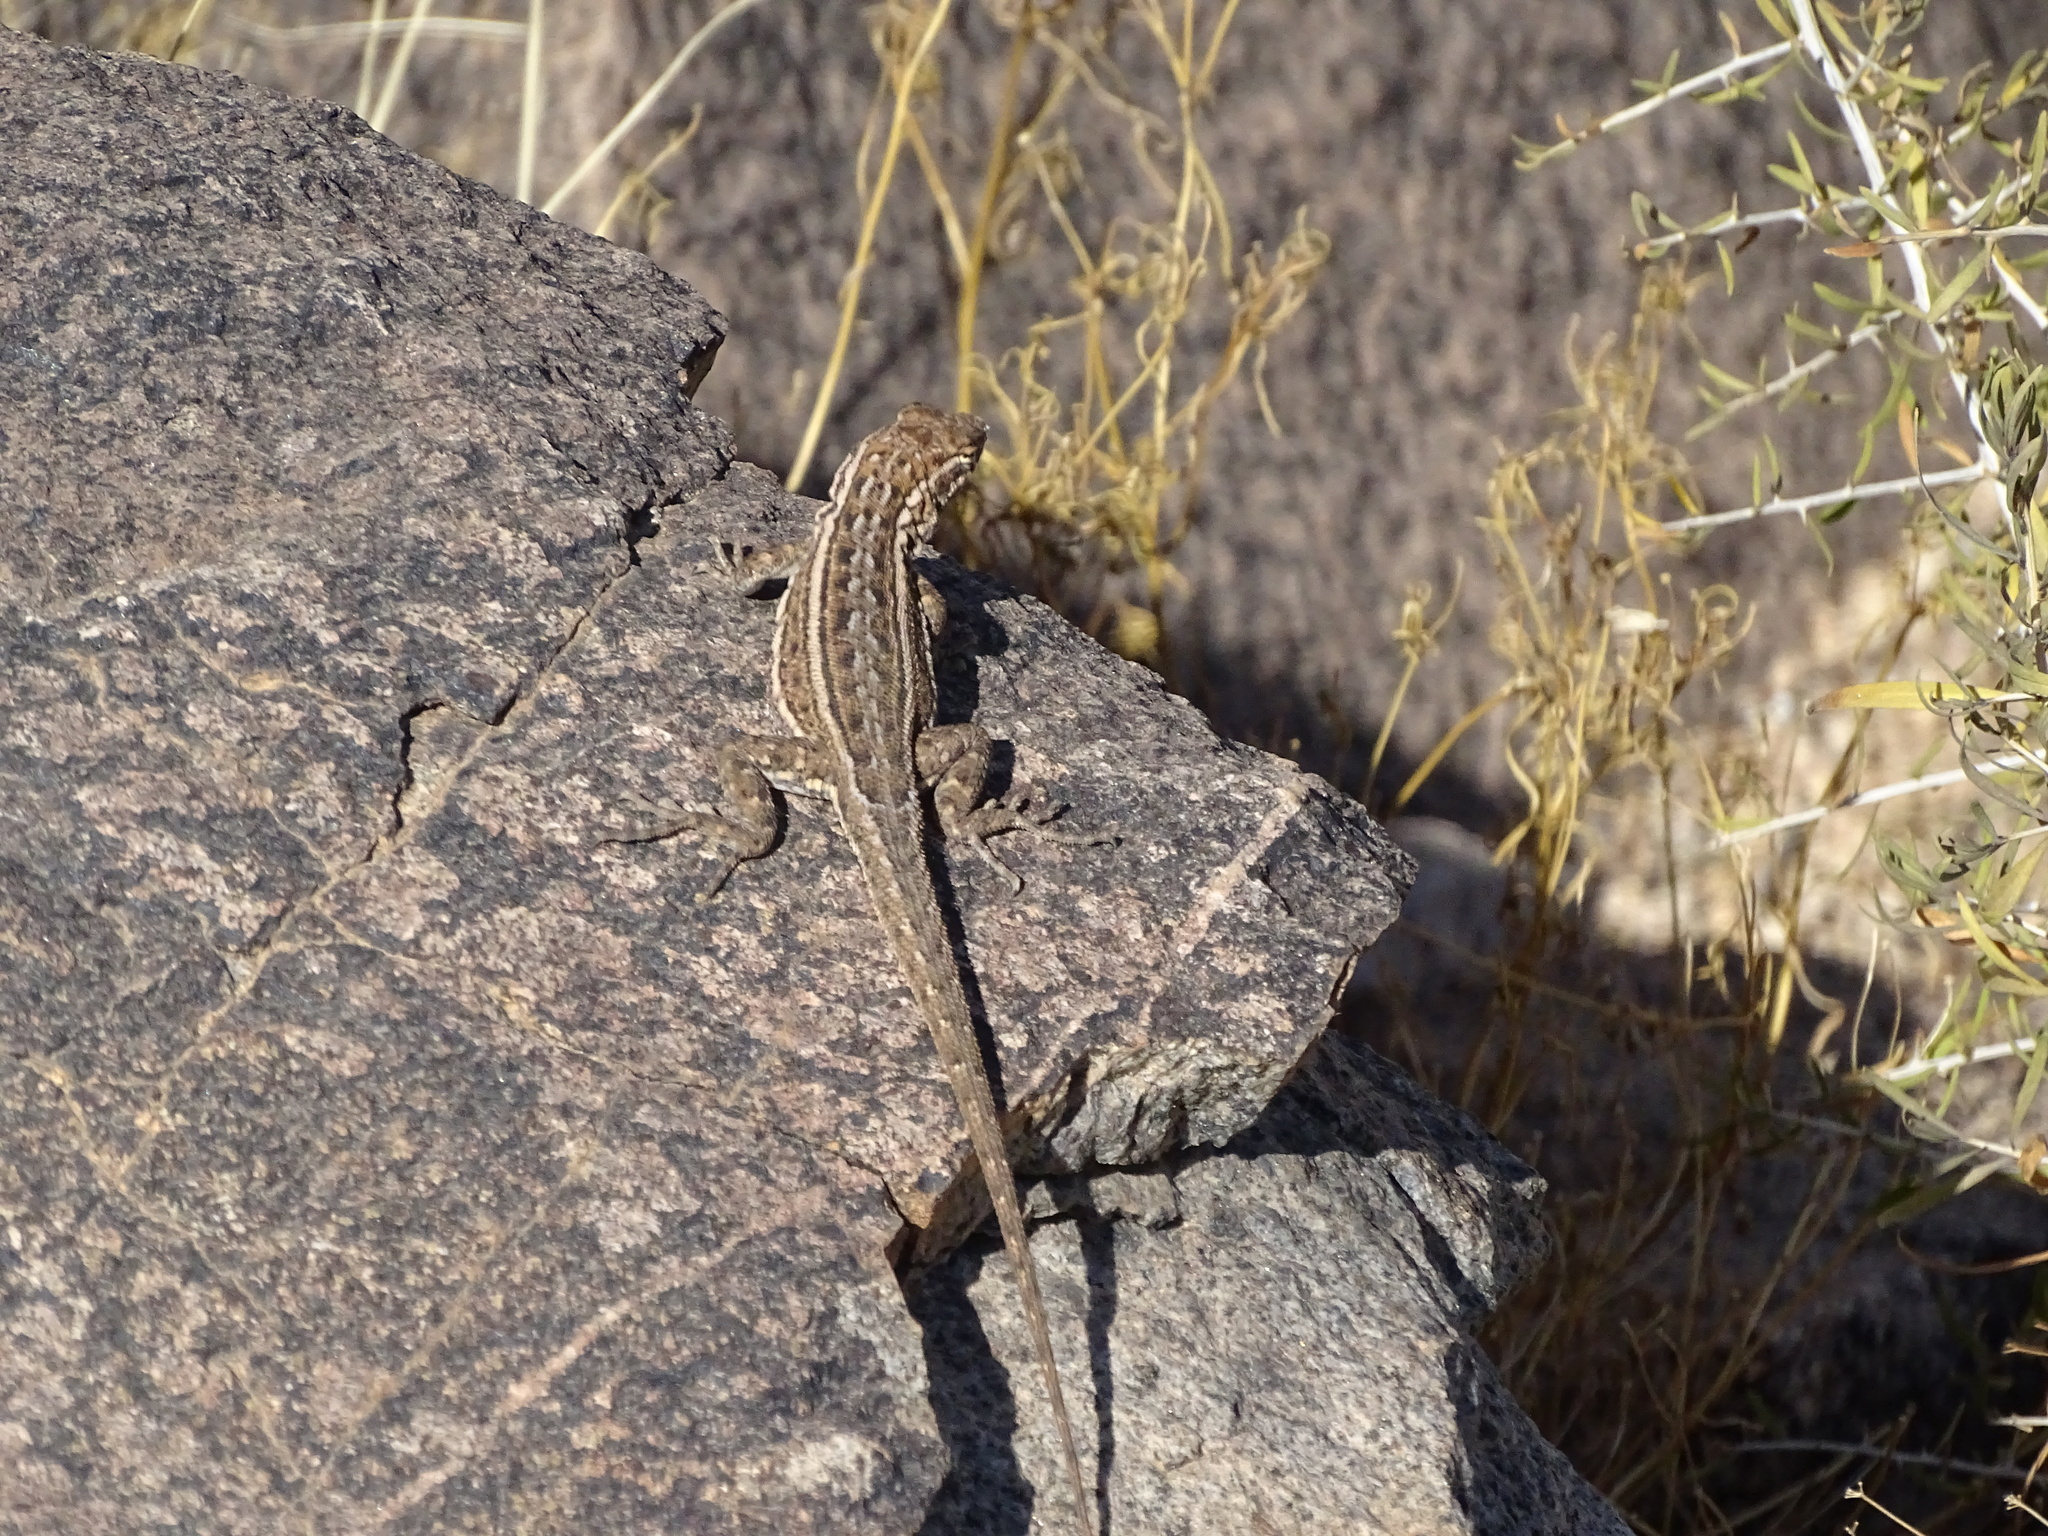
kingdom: Animalia
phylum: Chordata
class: Squamata
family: Phrynosomatidae
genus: Uta
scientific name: Uta stansburiana
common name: Side-blotched lizard
